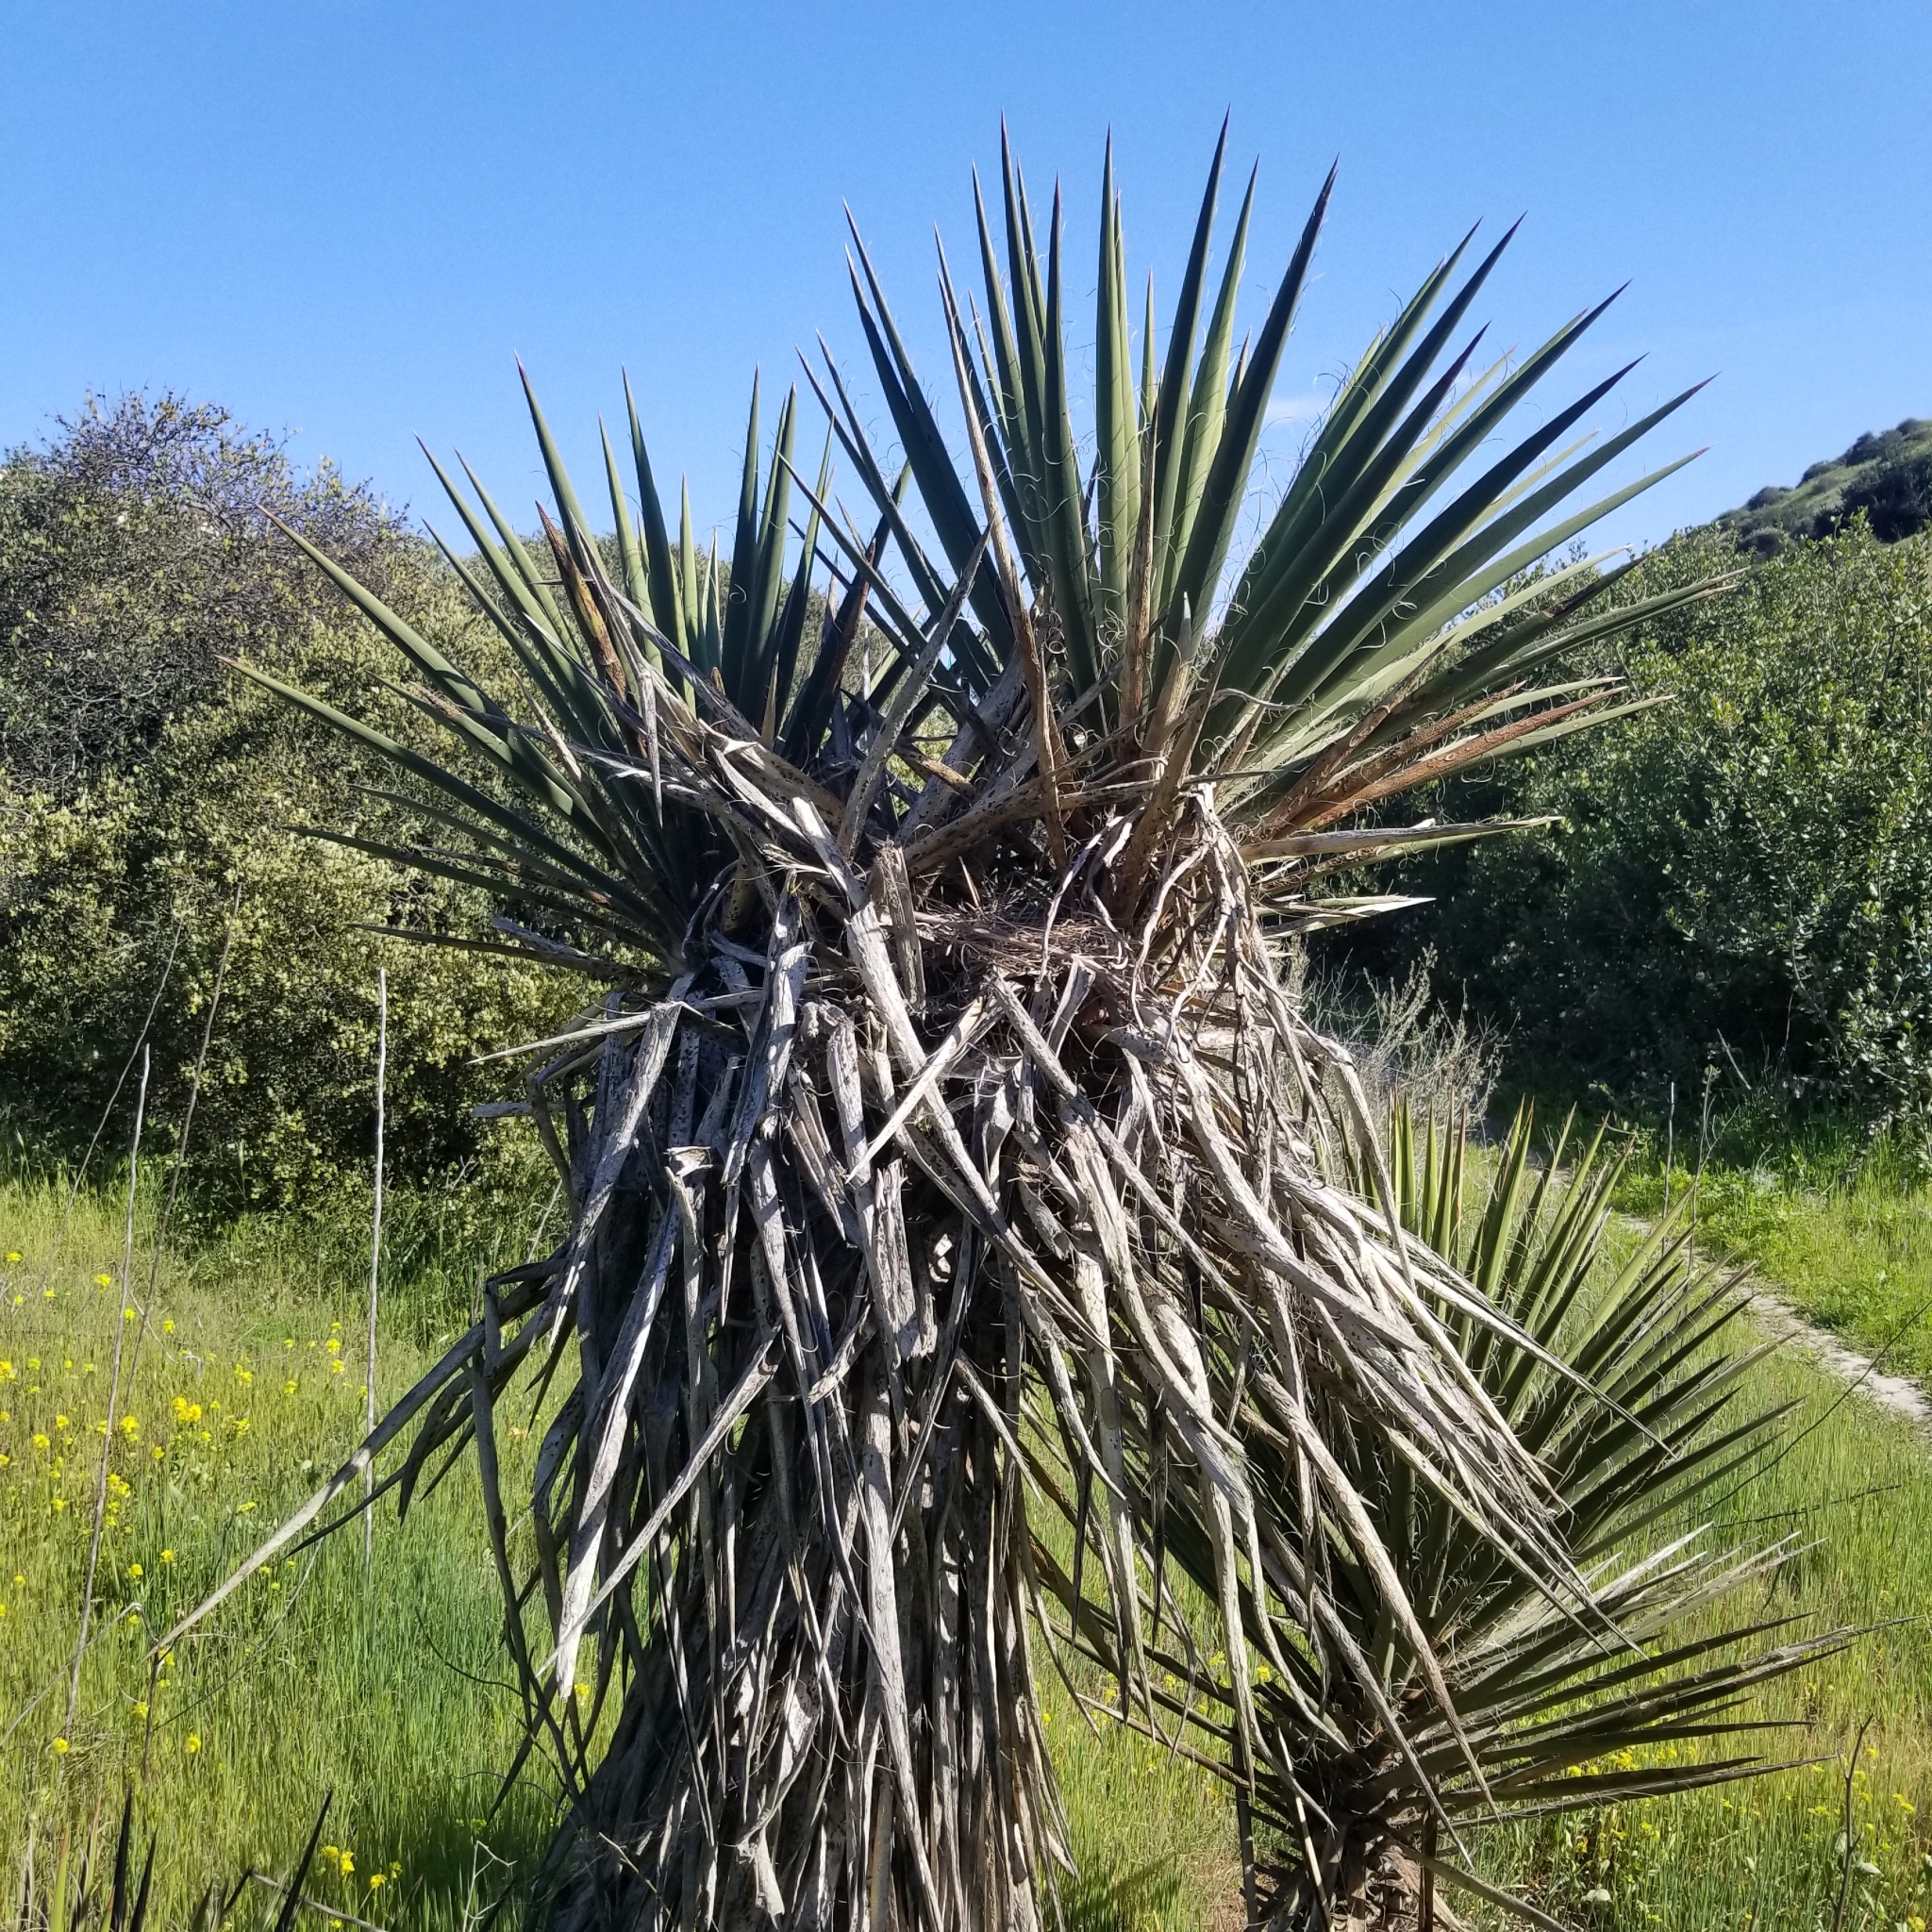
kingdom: Plantae
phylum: Tracheophyta
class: Liliopsida
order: Asparagales
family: Asparagaceae
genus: Yucca
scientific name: Yucca schidigera
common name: Mojave yucca
